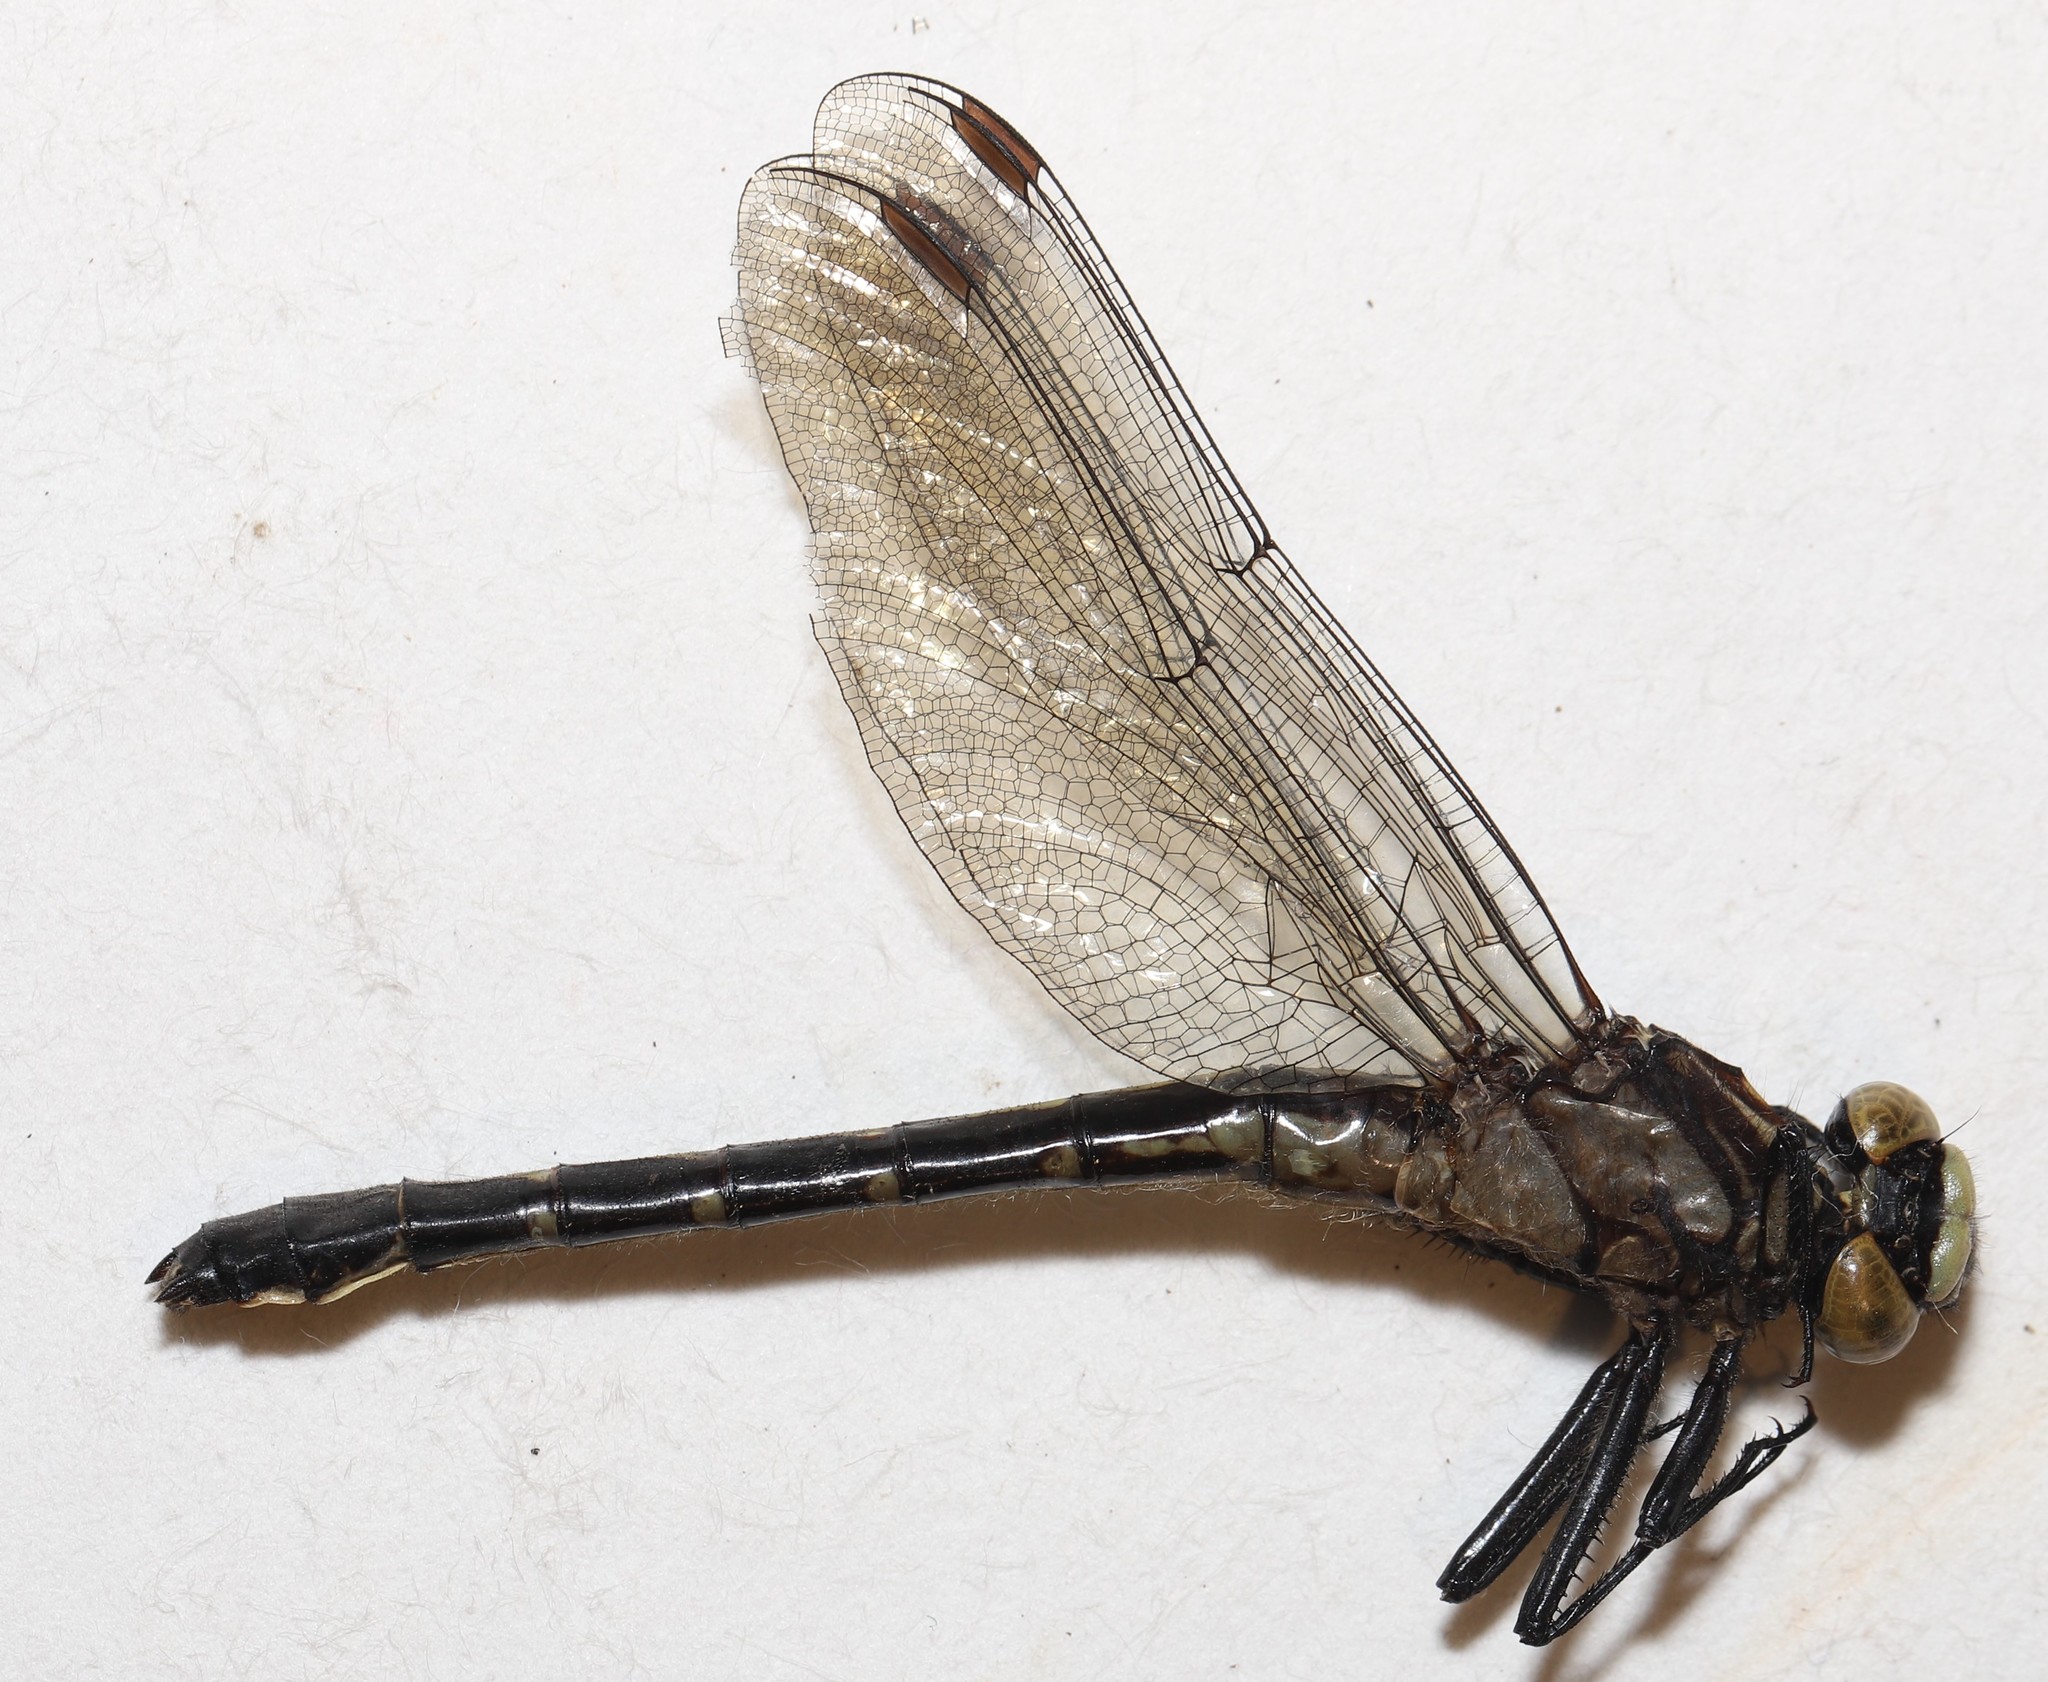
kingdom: Animalia
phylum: Arthropoda
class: Insecta
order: Odonata
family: Gomphidae
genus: Hylogomphus
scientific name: Hylogomphus adelphus
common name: Mustached clubtail
